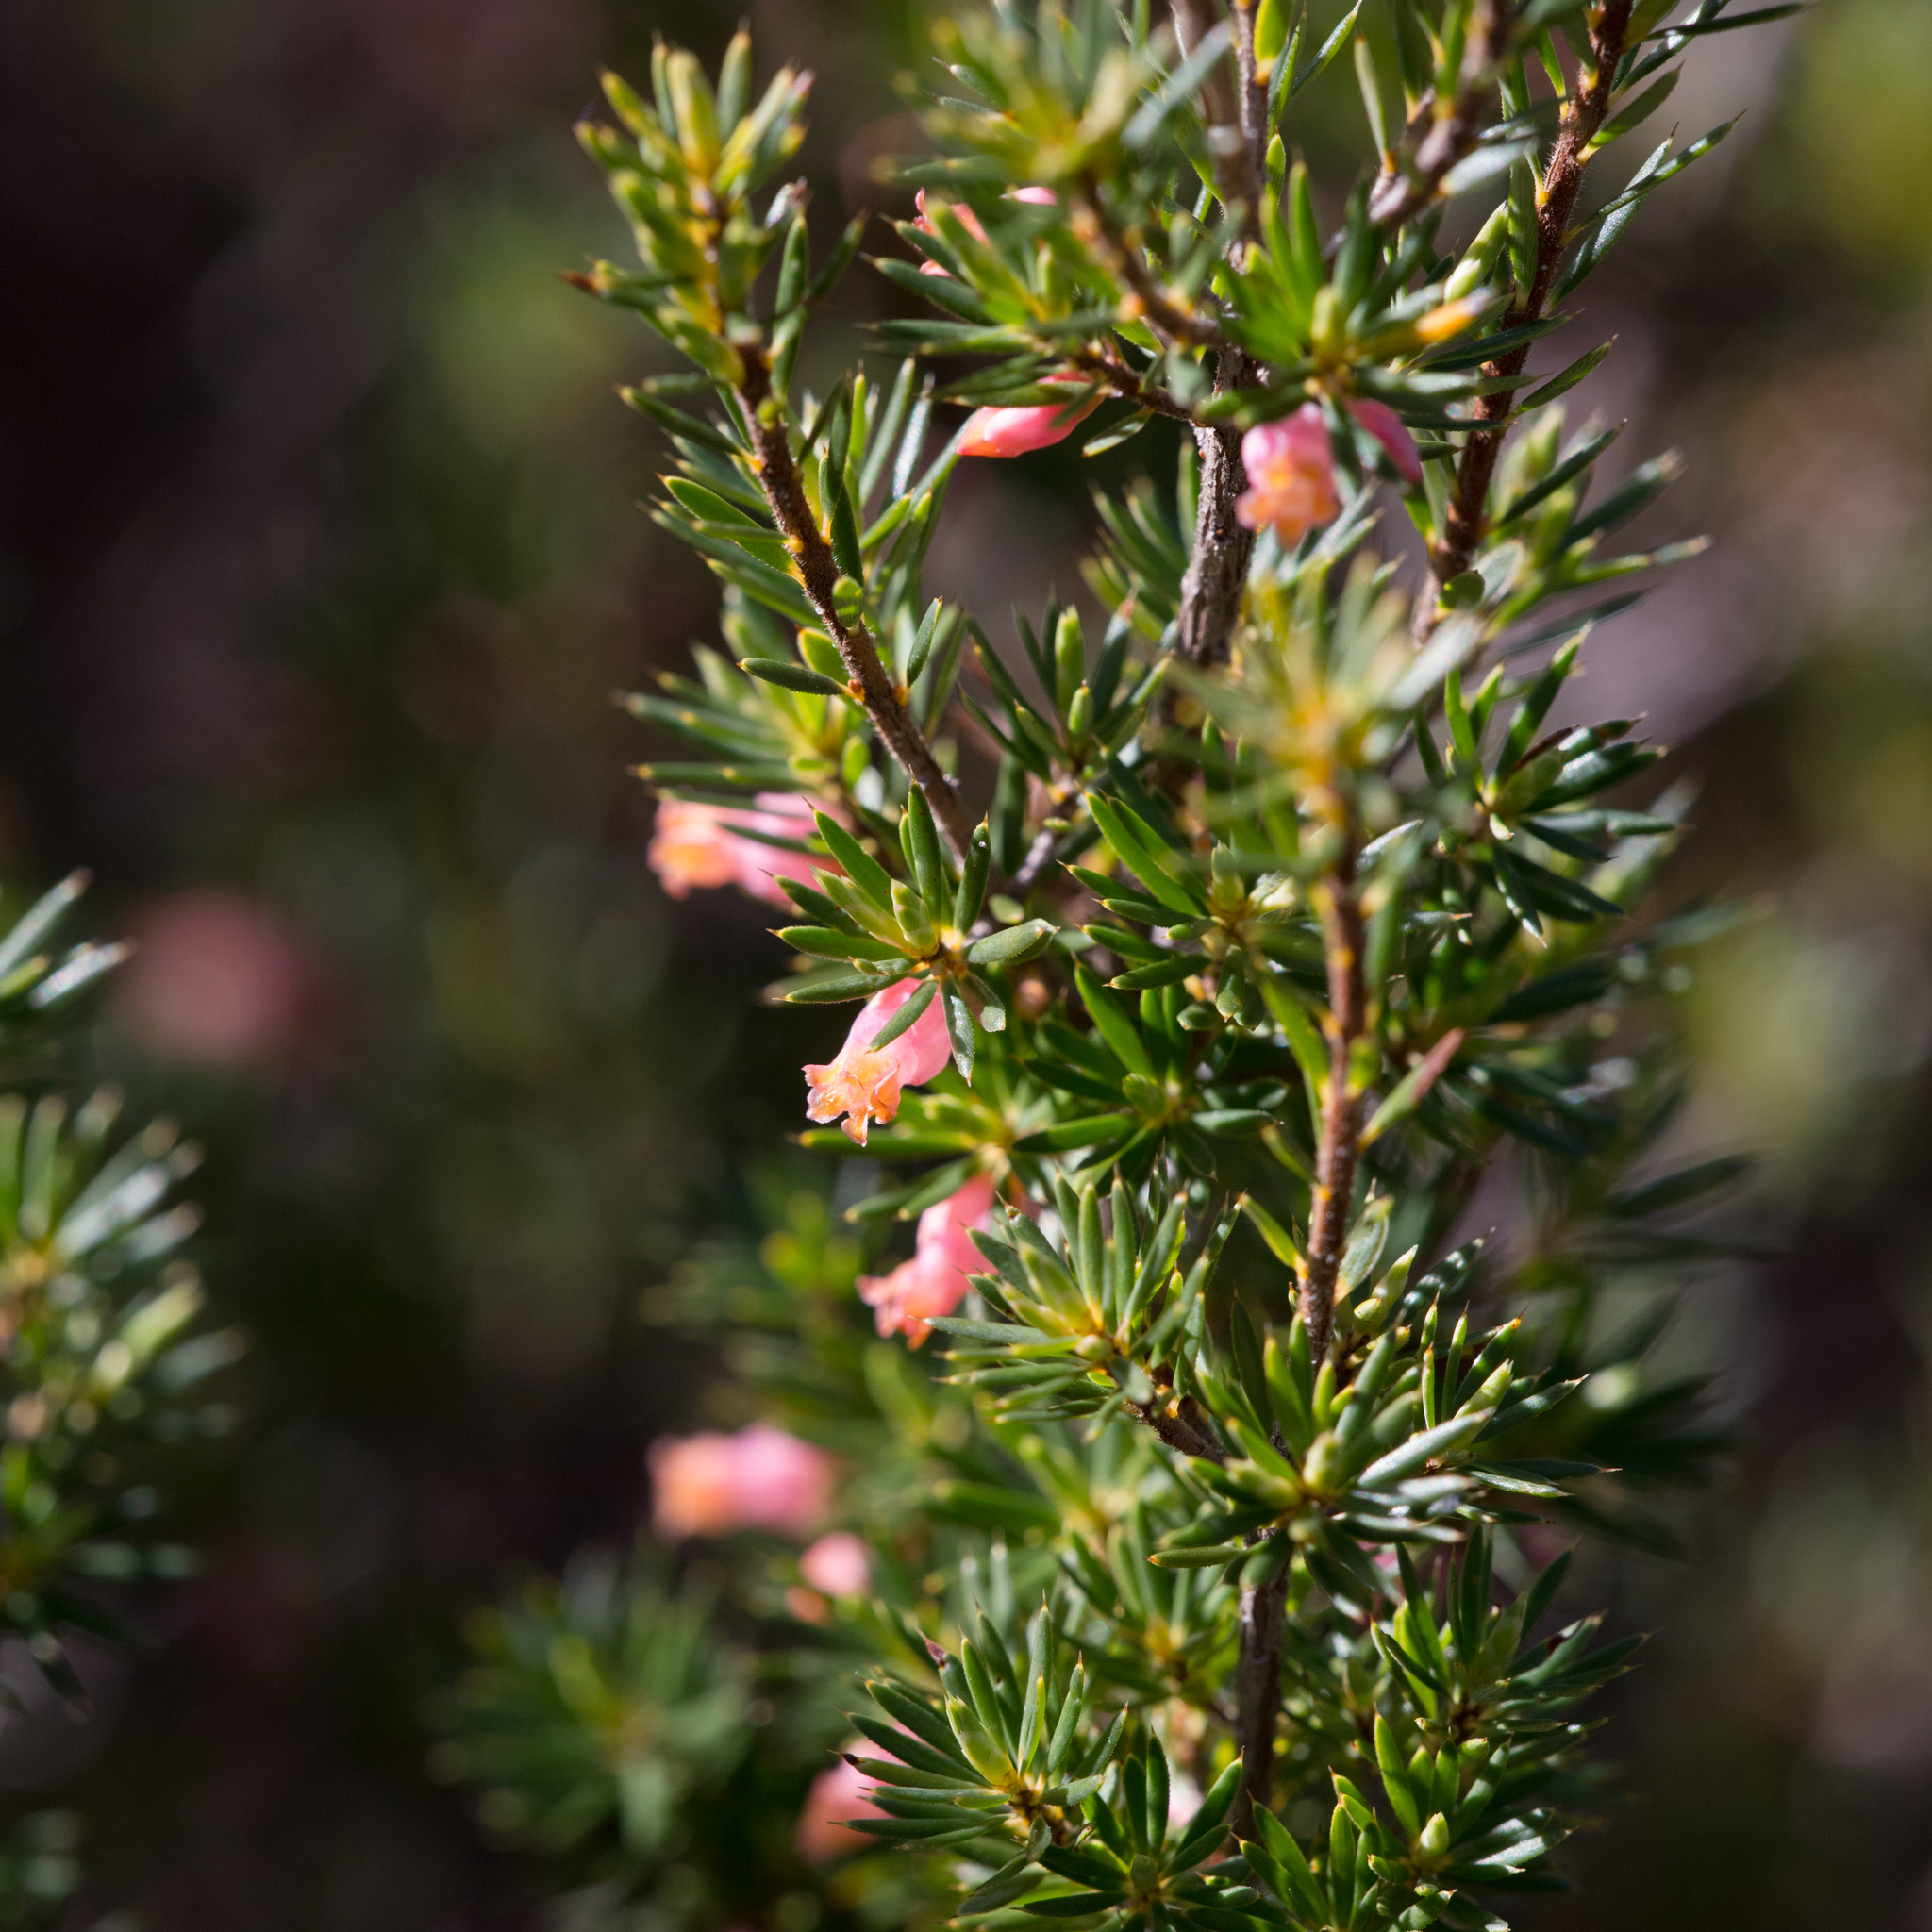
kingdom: Plantae
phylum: Tracheophyta
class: Magnoliopsida
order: Ericales
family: Ericaceae
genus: Brachyloma
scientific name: Brachyloma ericoides
